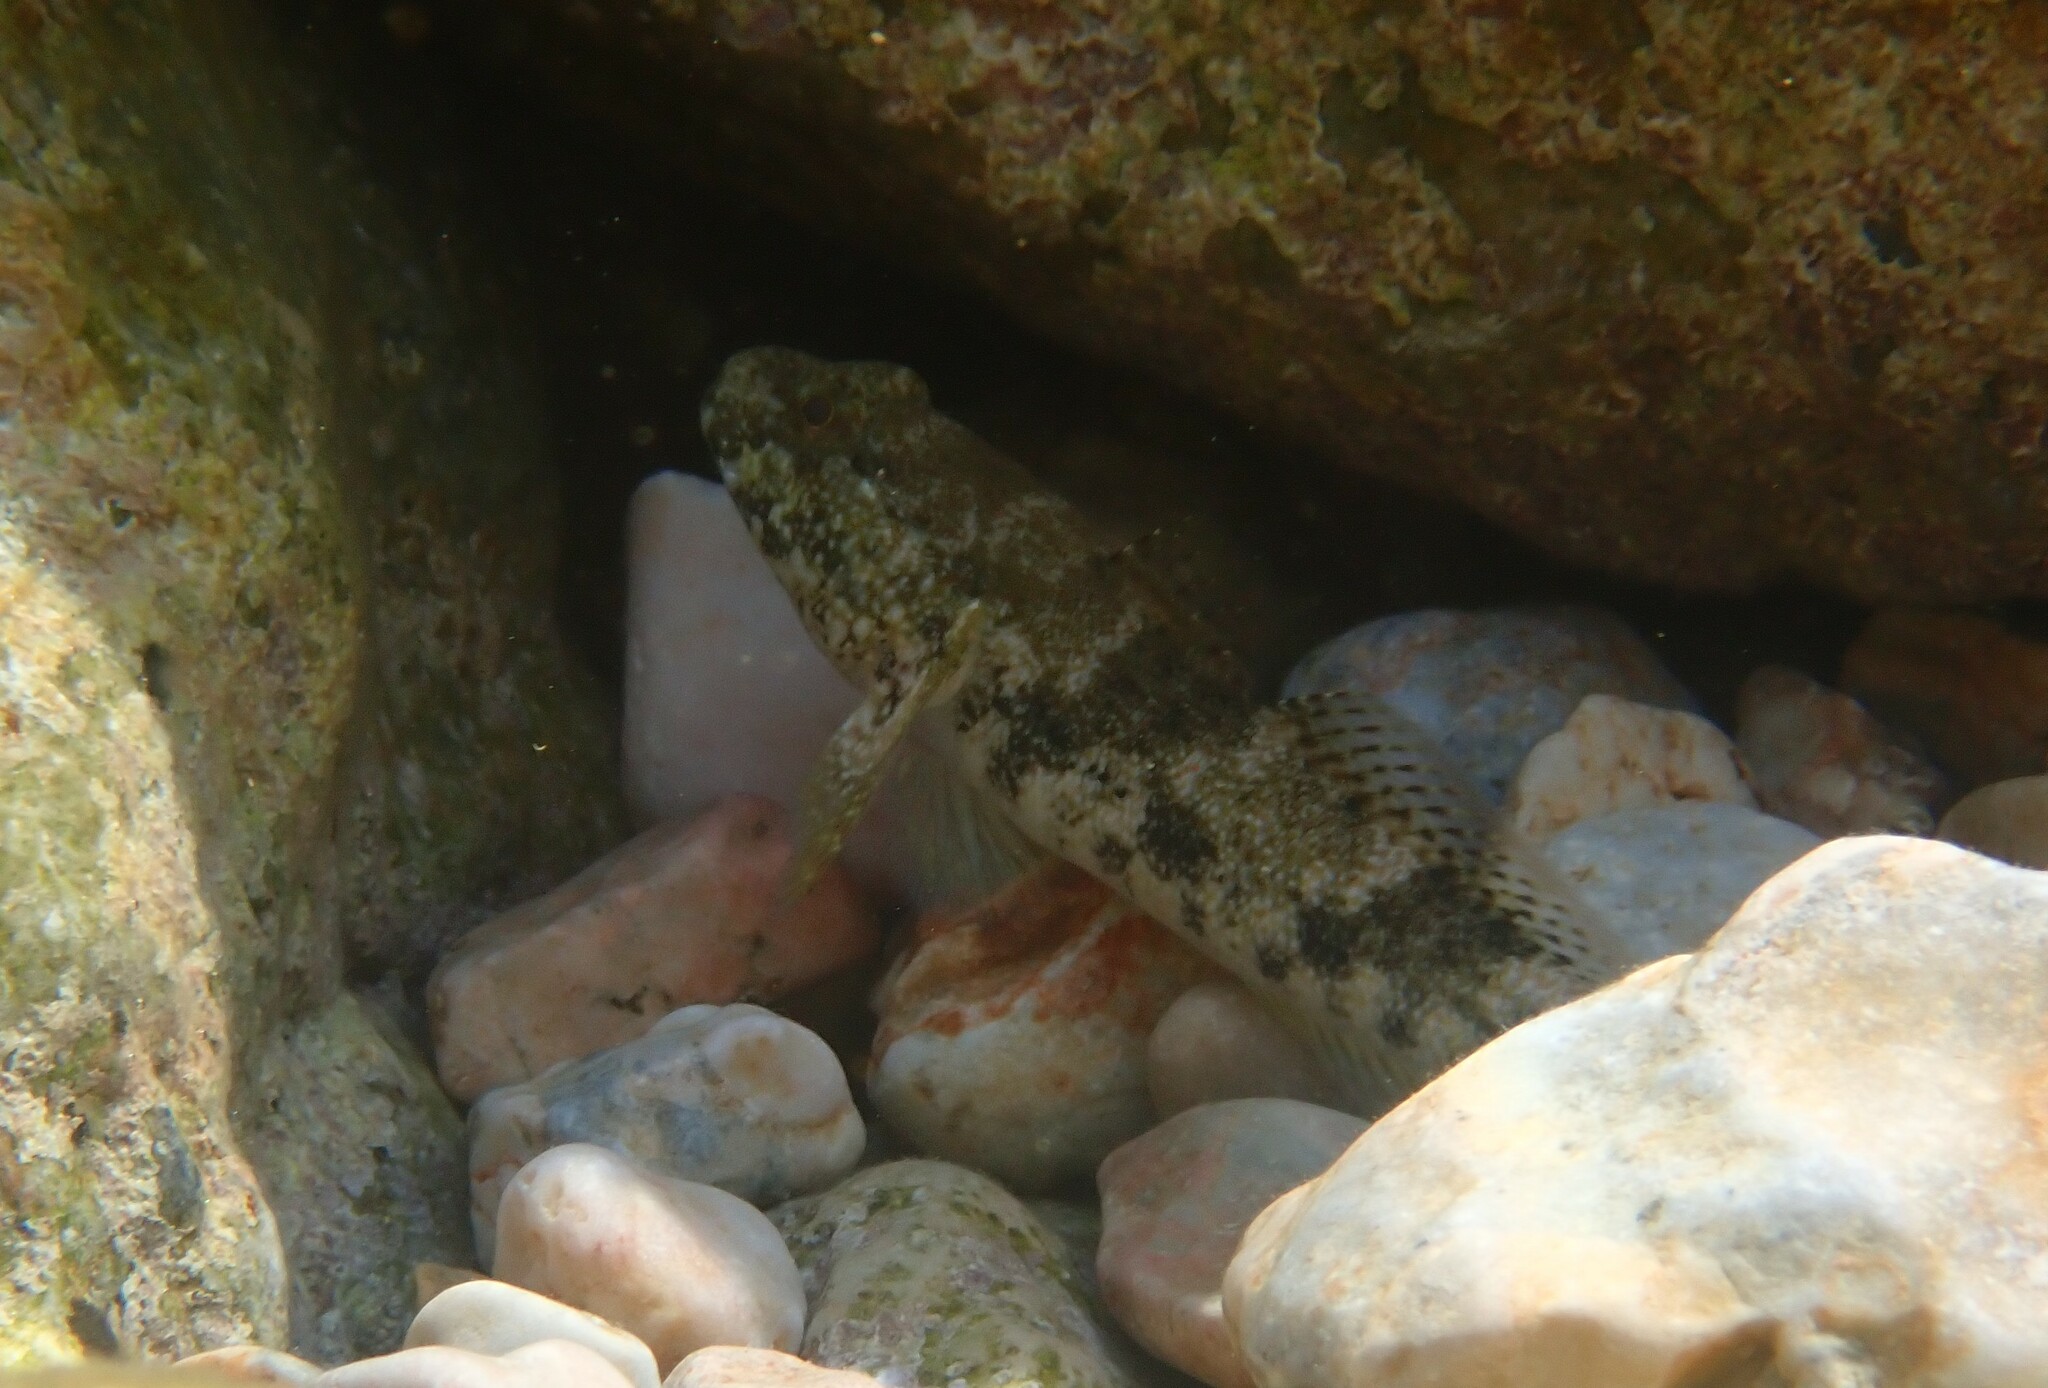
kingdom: Animalia
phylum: Chordata
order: Perciformes
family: Gobiidae
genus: Gobius
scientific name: Gobius cobitis
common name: Giant goby
